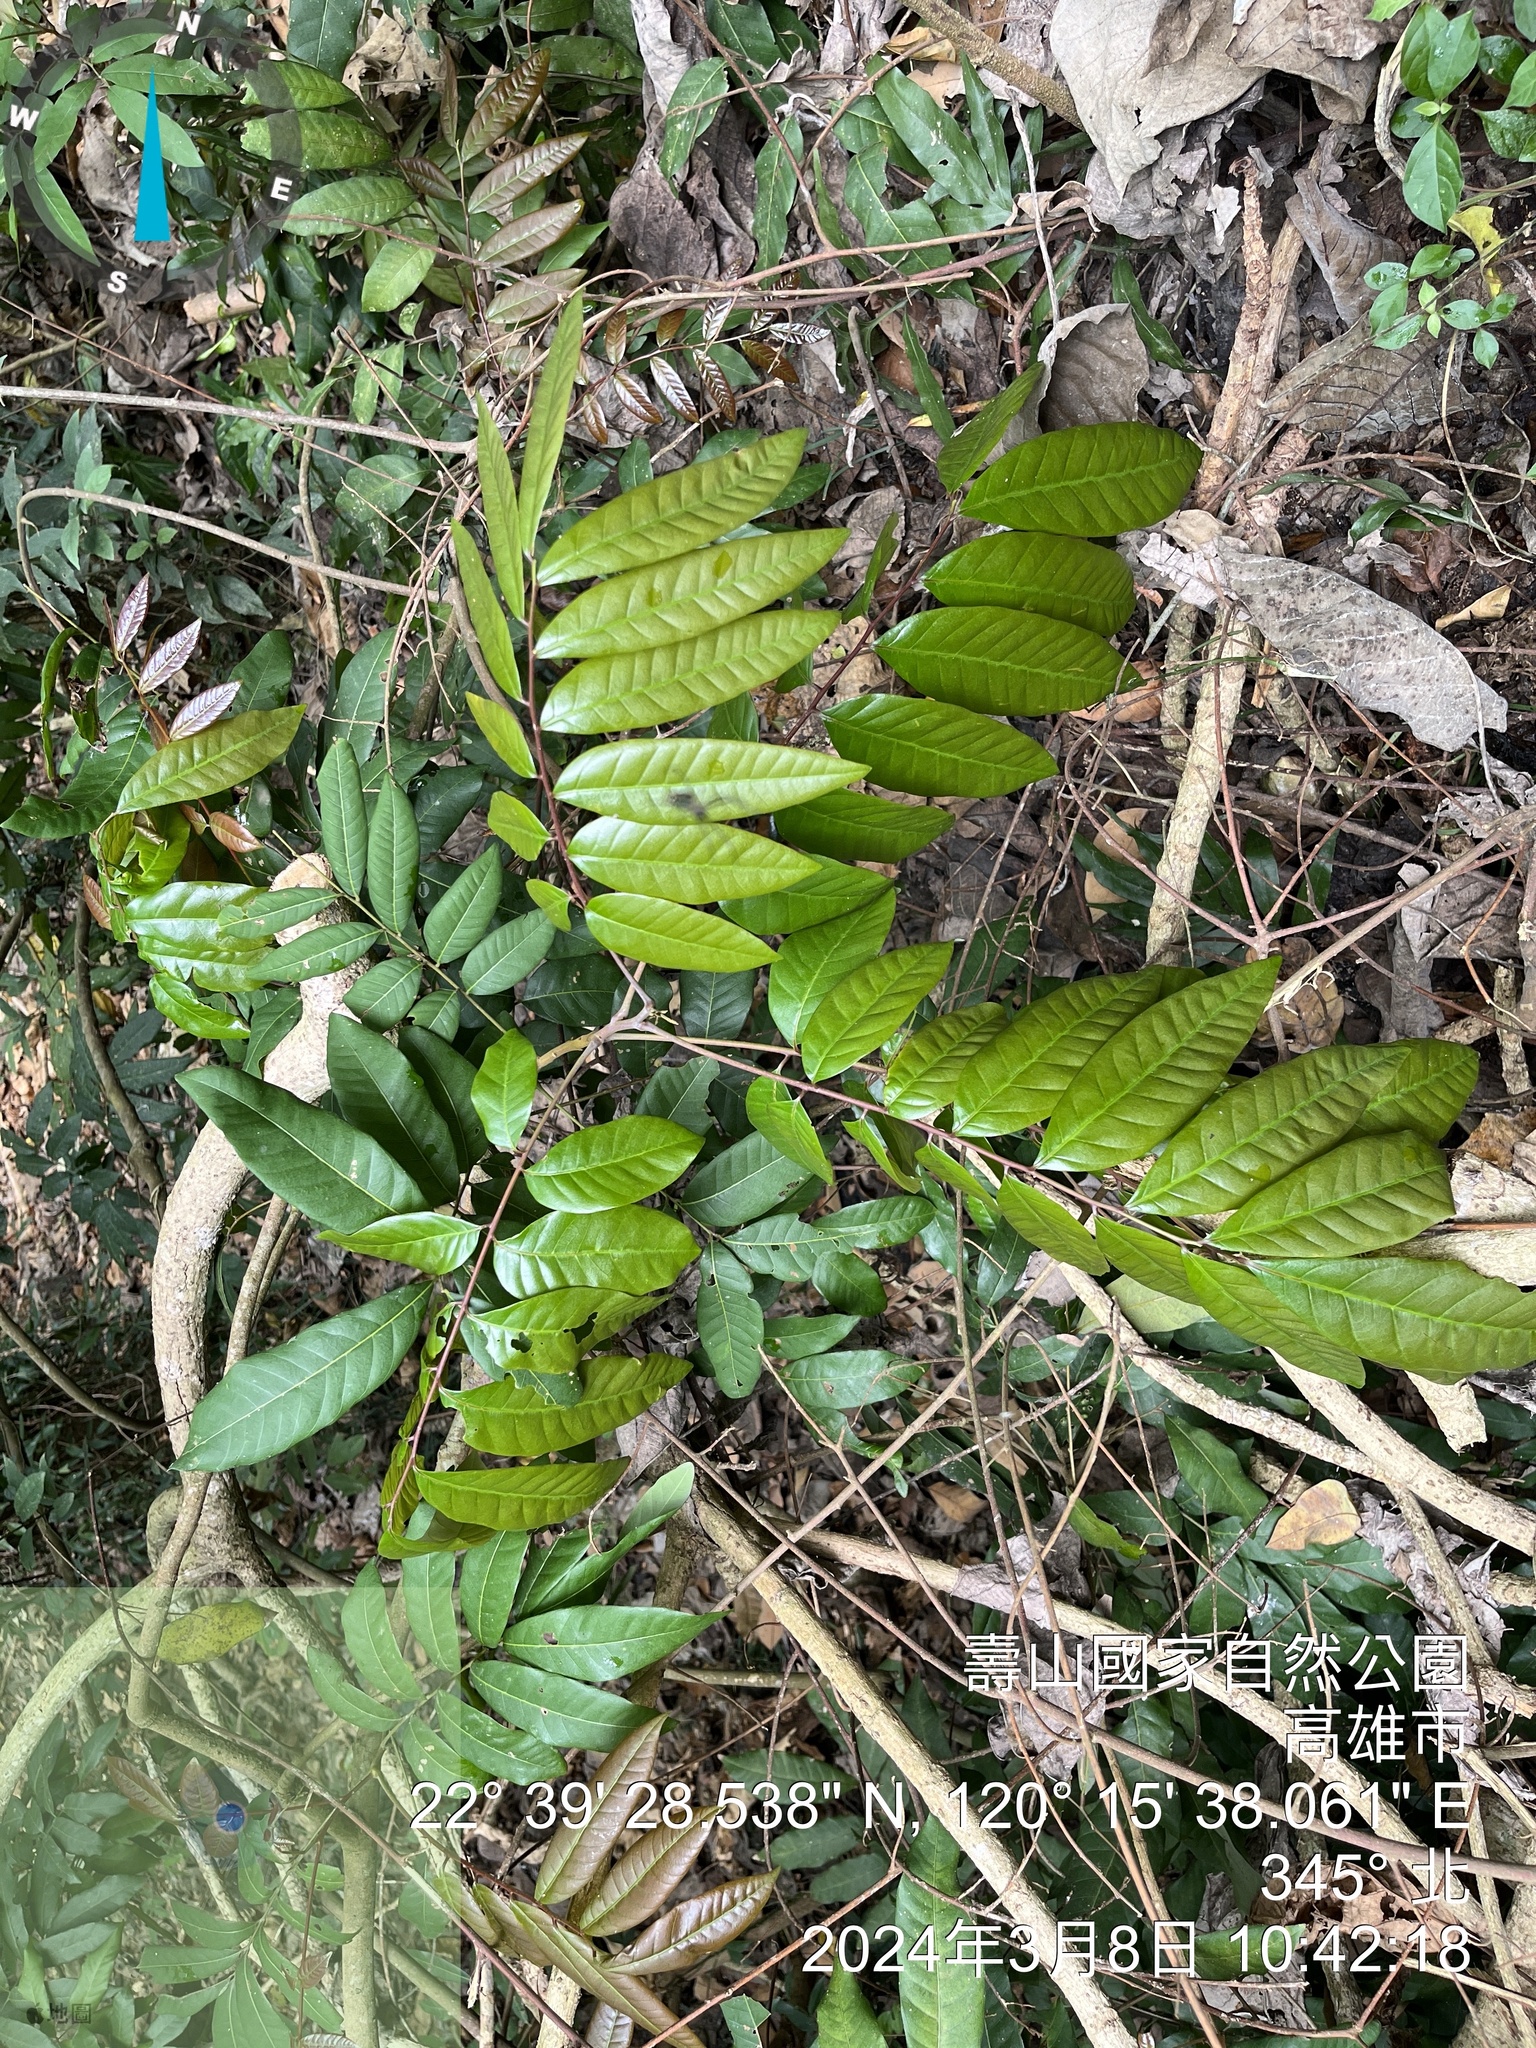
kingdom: Plantae
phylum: Tracheophyta
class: Magnoliopsida
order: Sapindales
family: Sapindaceae
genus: Dimocarpus
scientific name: Dimocarpus longan
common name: Longan
